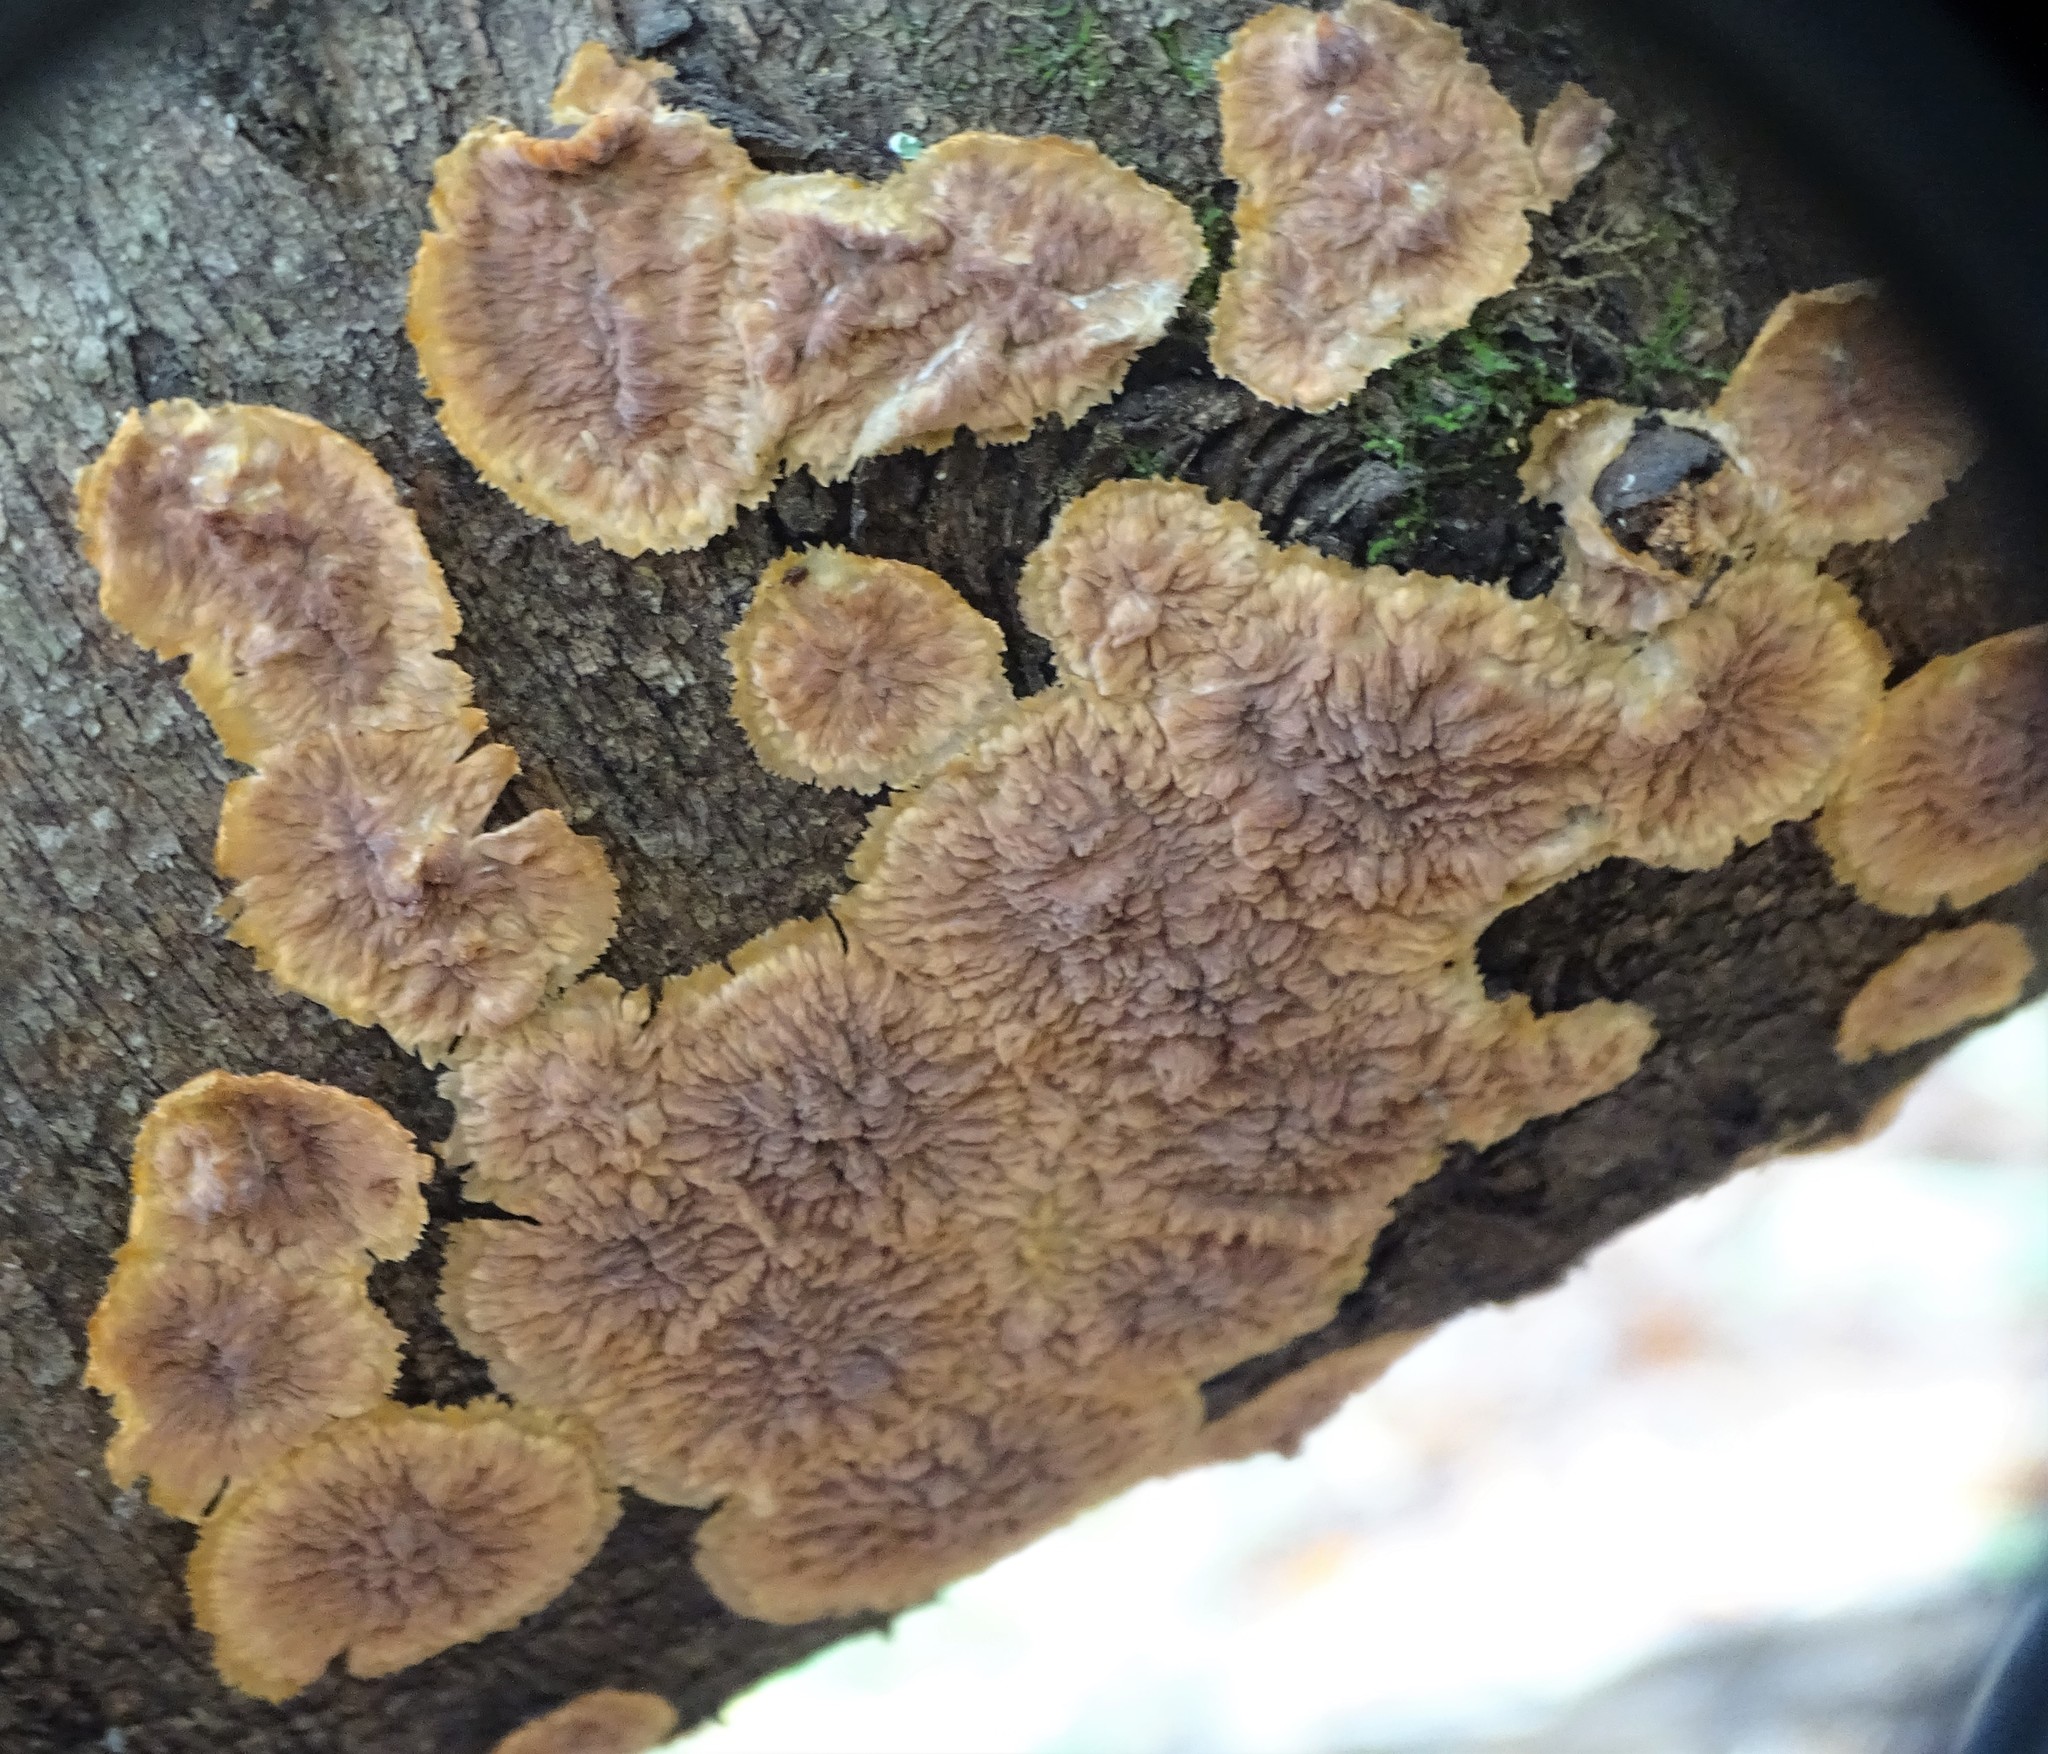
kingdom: Fungi
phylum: Basidiomycota
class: Agaricomycetes
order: Polyporales
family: Meruliaceae
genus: Phlebia
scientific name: Phlebia radiata
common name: Wrinkled crust
